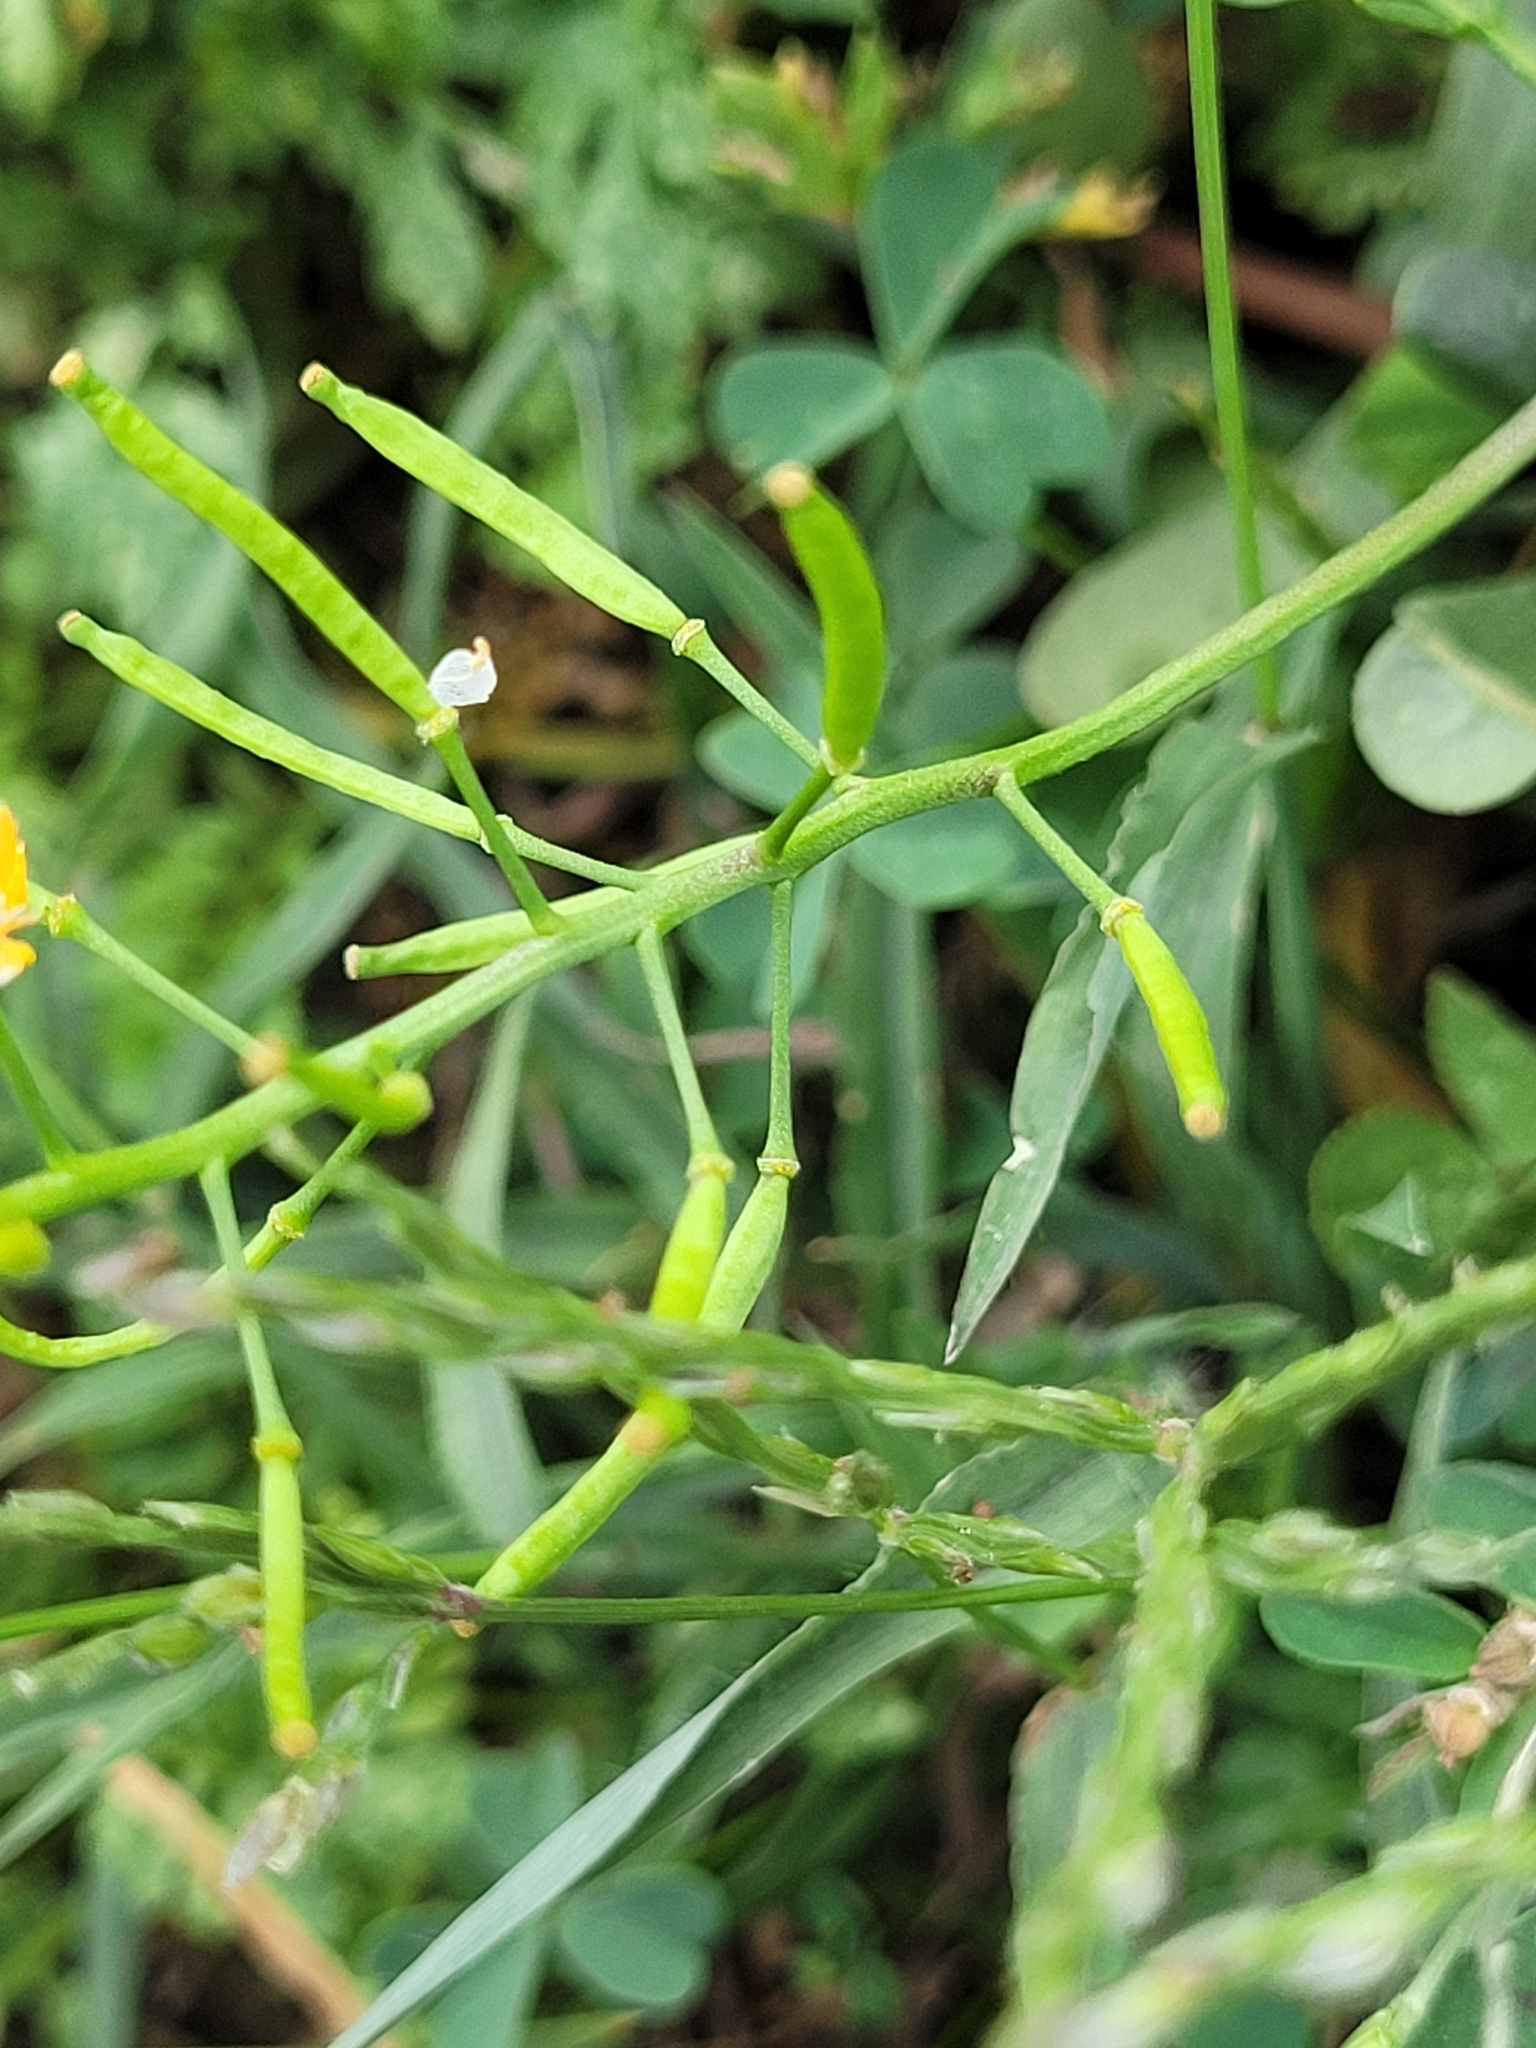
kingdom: Plantae
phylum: Tracheophyta
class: Magnoliopsida
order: Brassicales
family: Brassicaceae
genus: Rorippa
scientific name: Rorippa palustris
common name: Marsh yellow-cress
